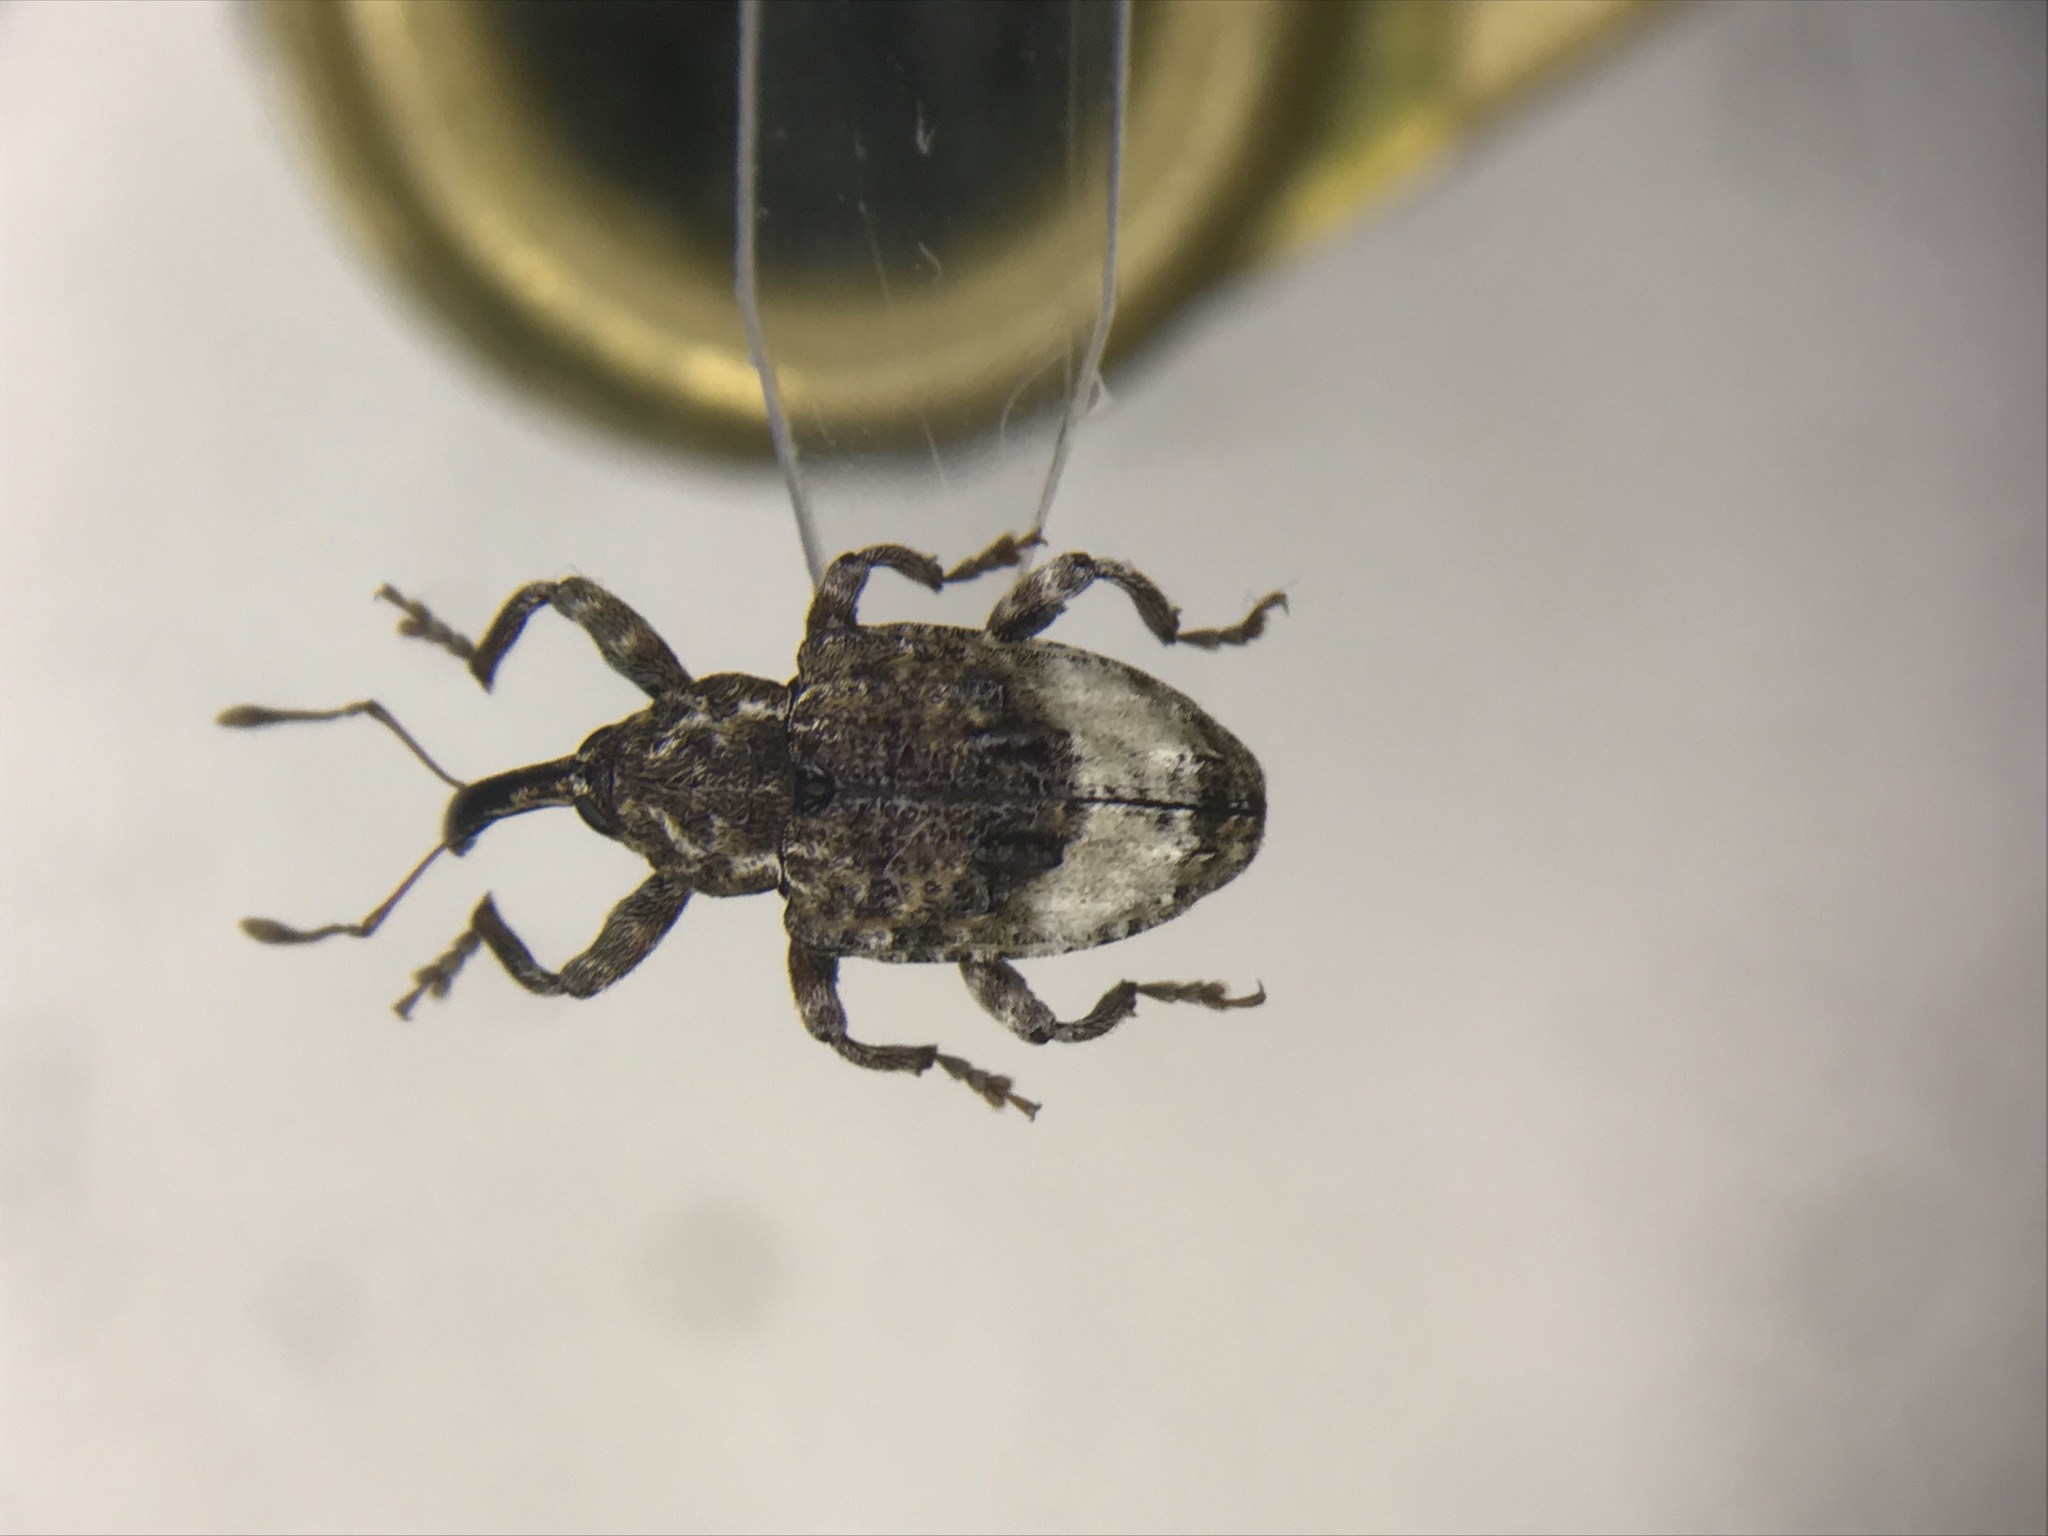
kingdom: Animalia
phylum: Arthropoda
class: Insecta
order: Coleoptera
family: Curculionidae
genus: Conotrachelus
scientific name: Conotrachelus juglandis
